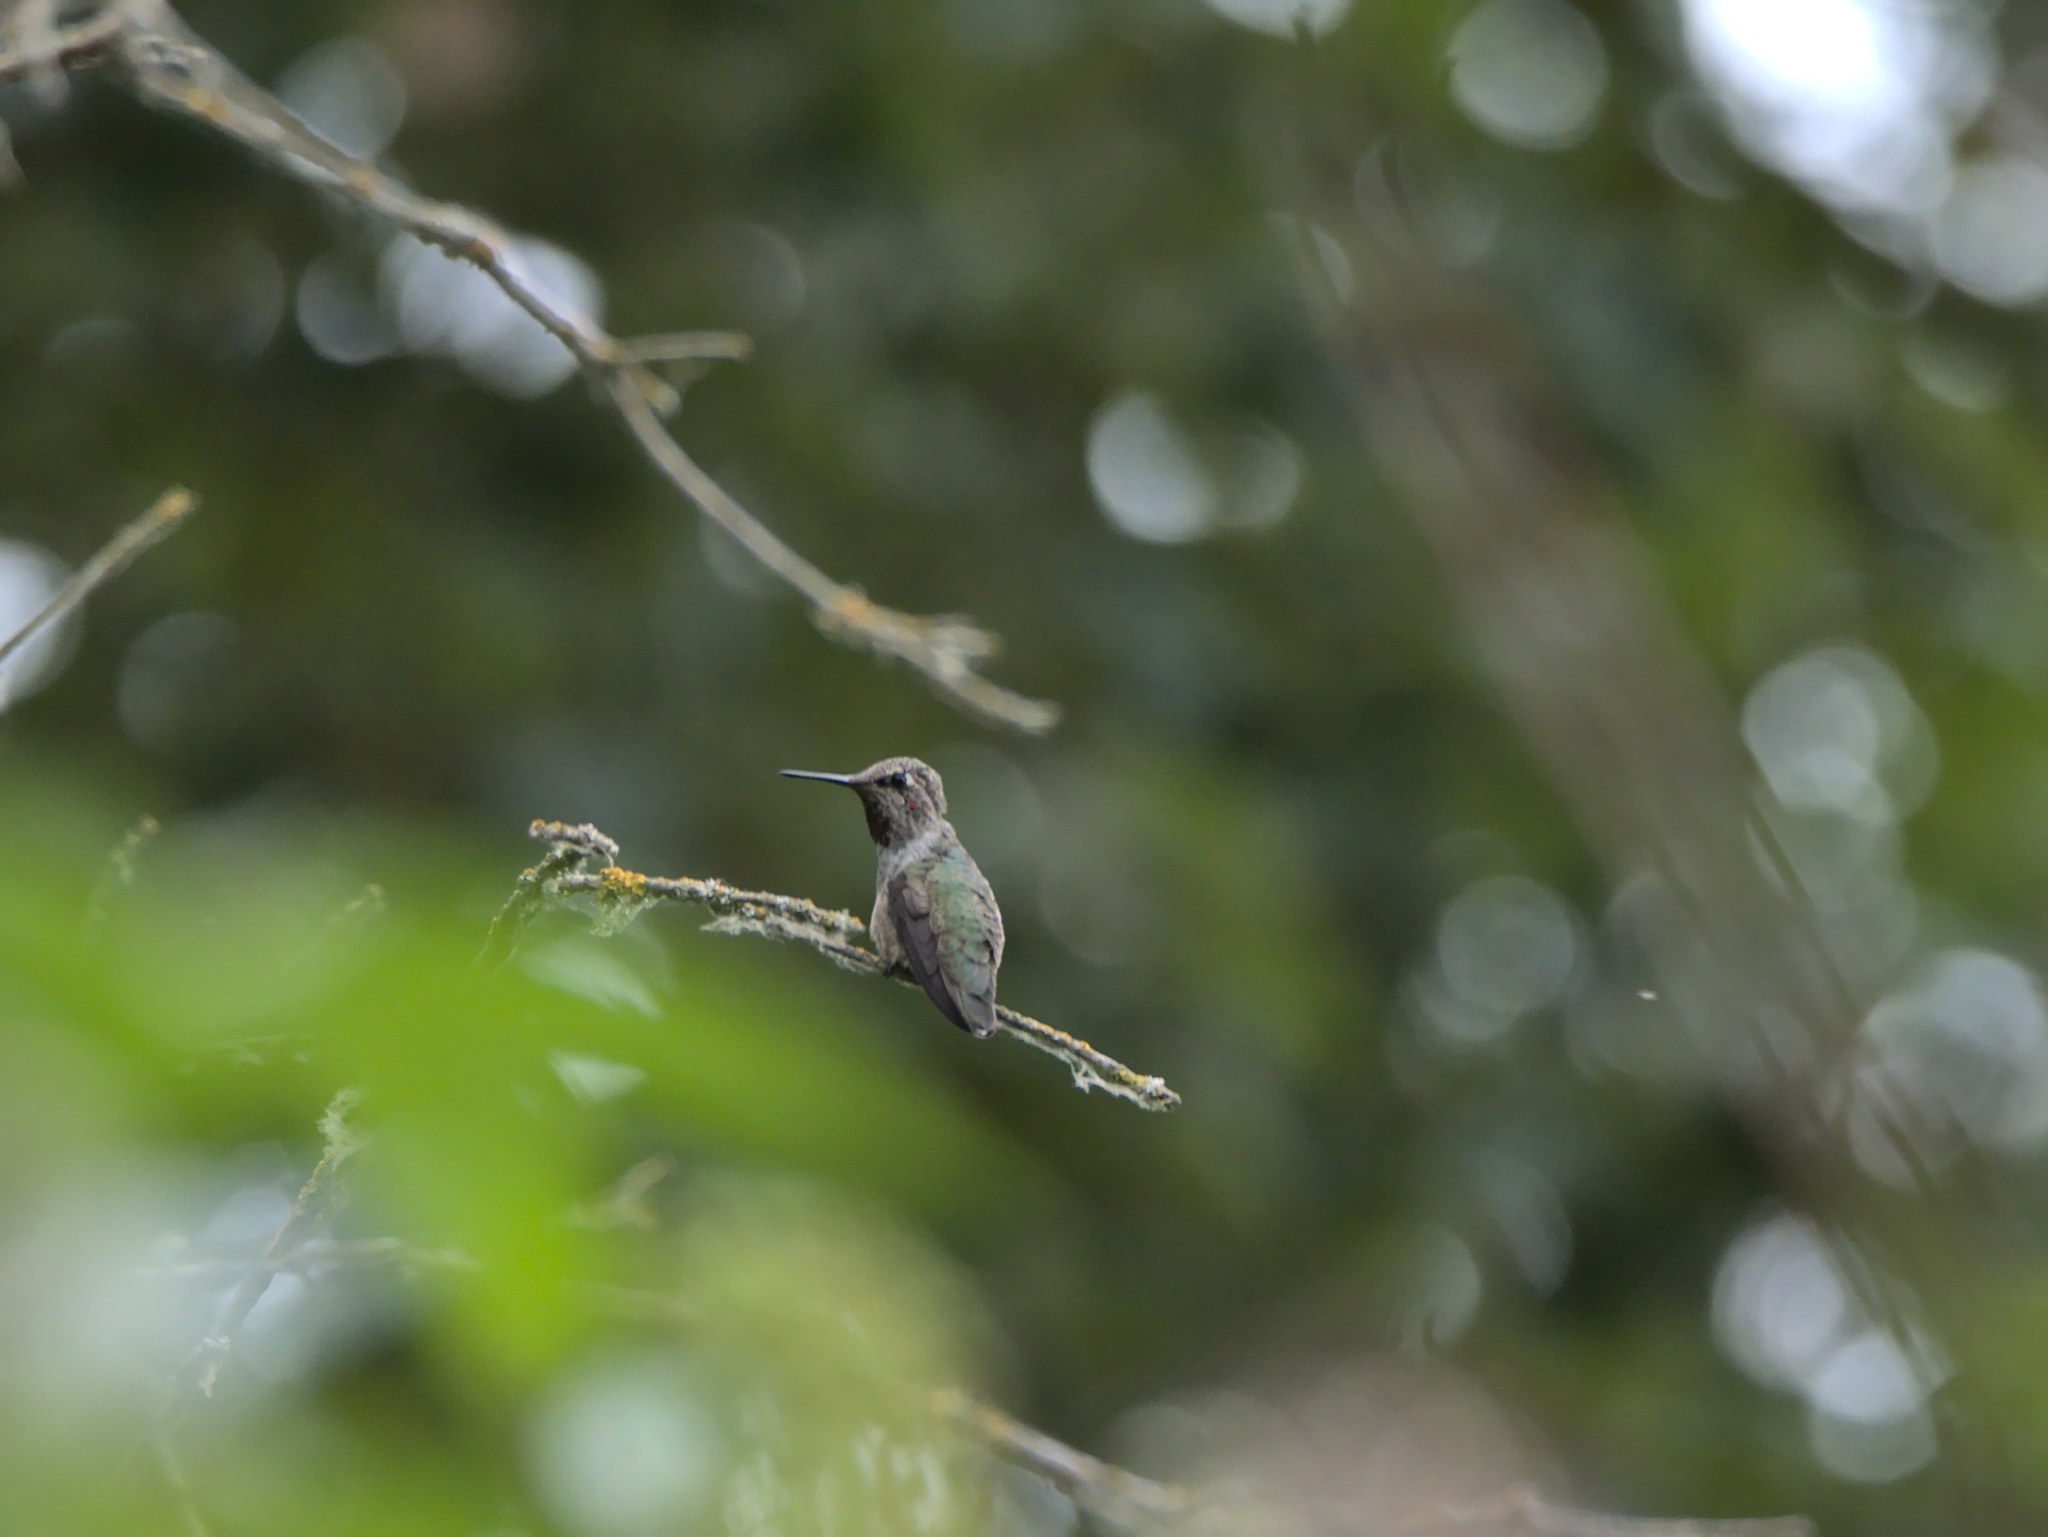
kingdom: Animalia
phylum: Chordata
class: Aves
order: Apodiformes
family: Trochilidae
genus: Calypte
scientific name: Calypte anna
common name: Anna's hummingbird
